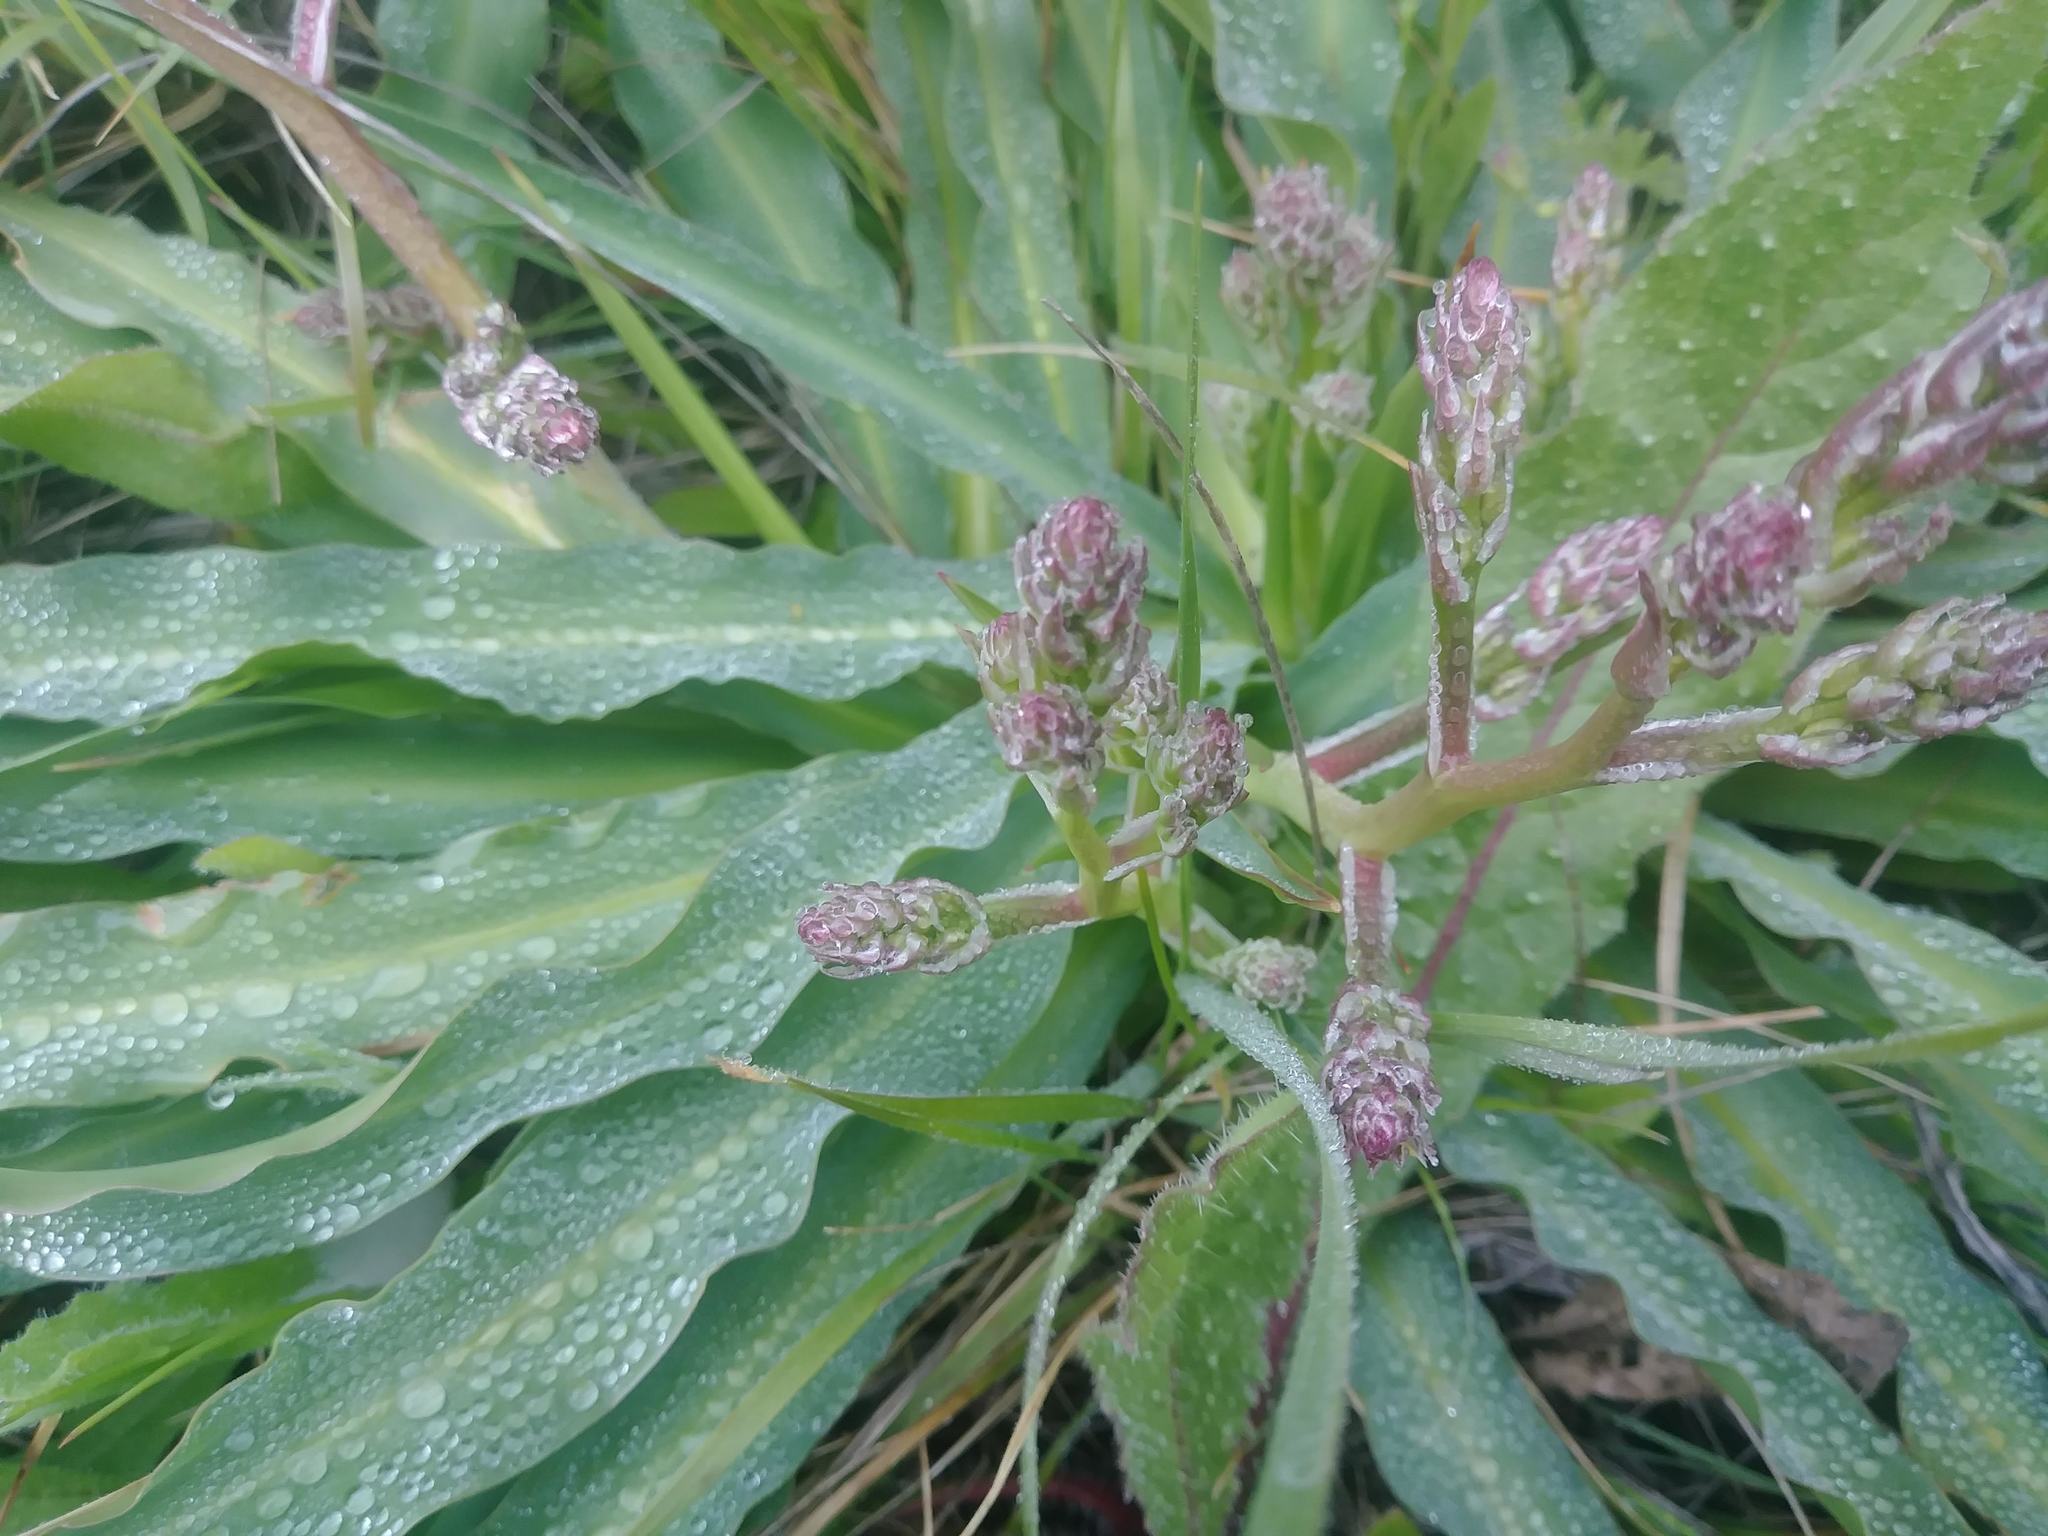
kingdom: Plantae
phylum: Tracheophyta
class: Liliopsida
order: Asparagales
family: Asparagaceae
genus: Chlorogalum
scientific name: Chlorogalum pomeridianum
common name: Amole
